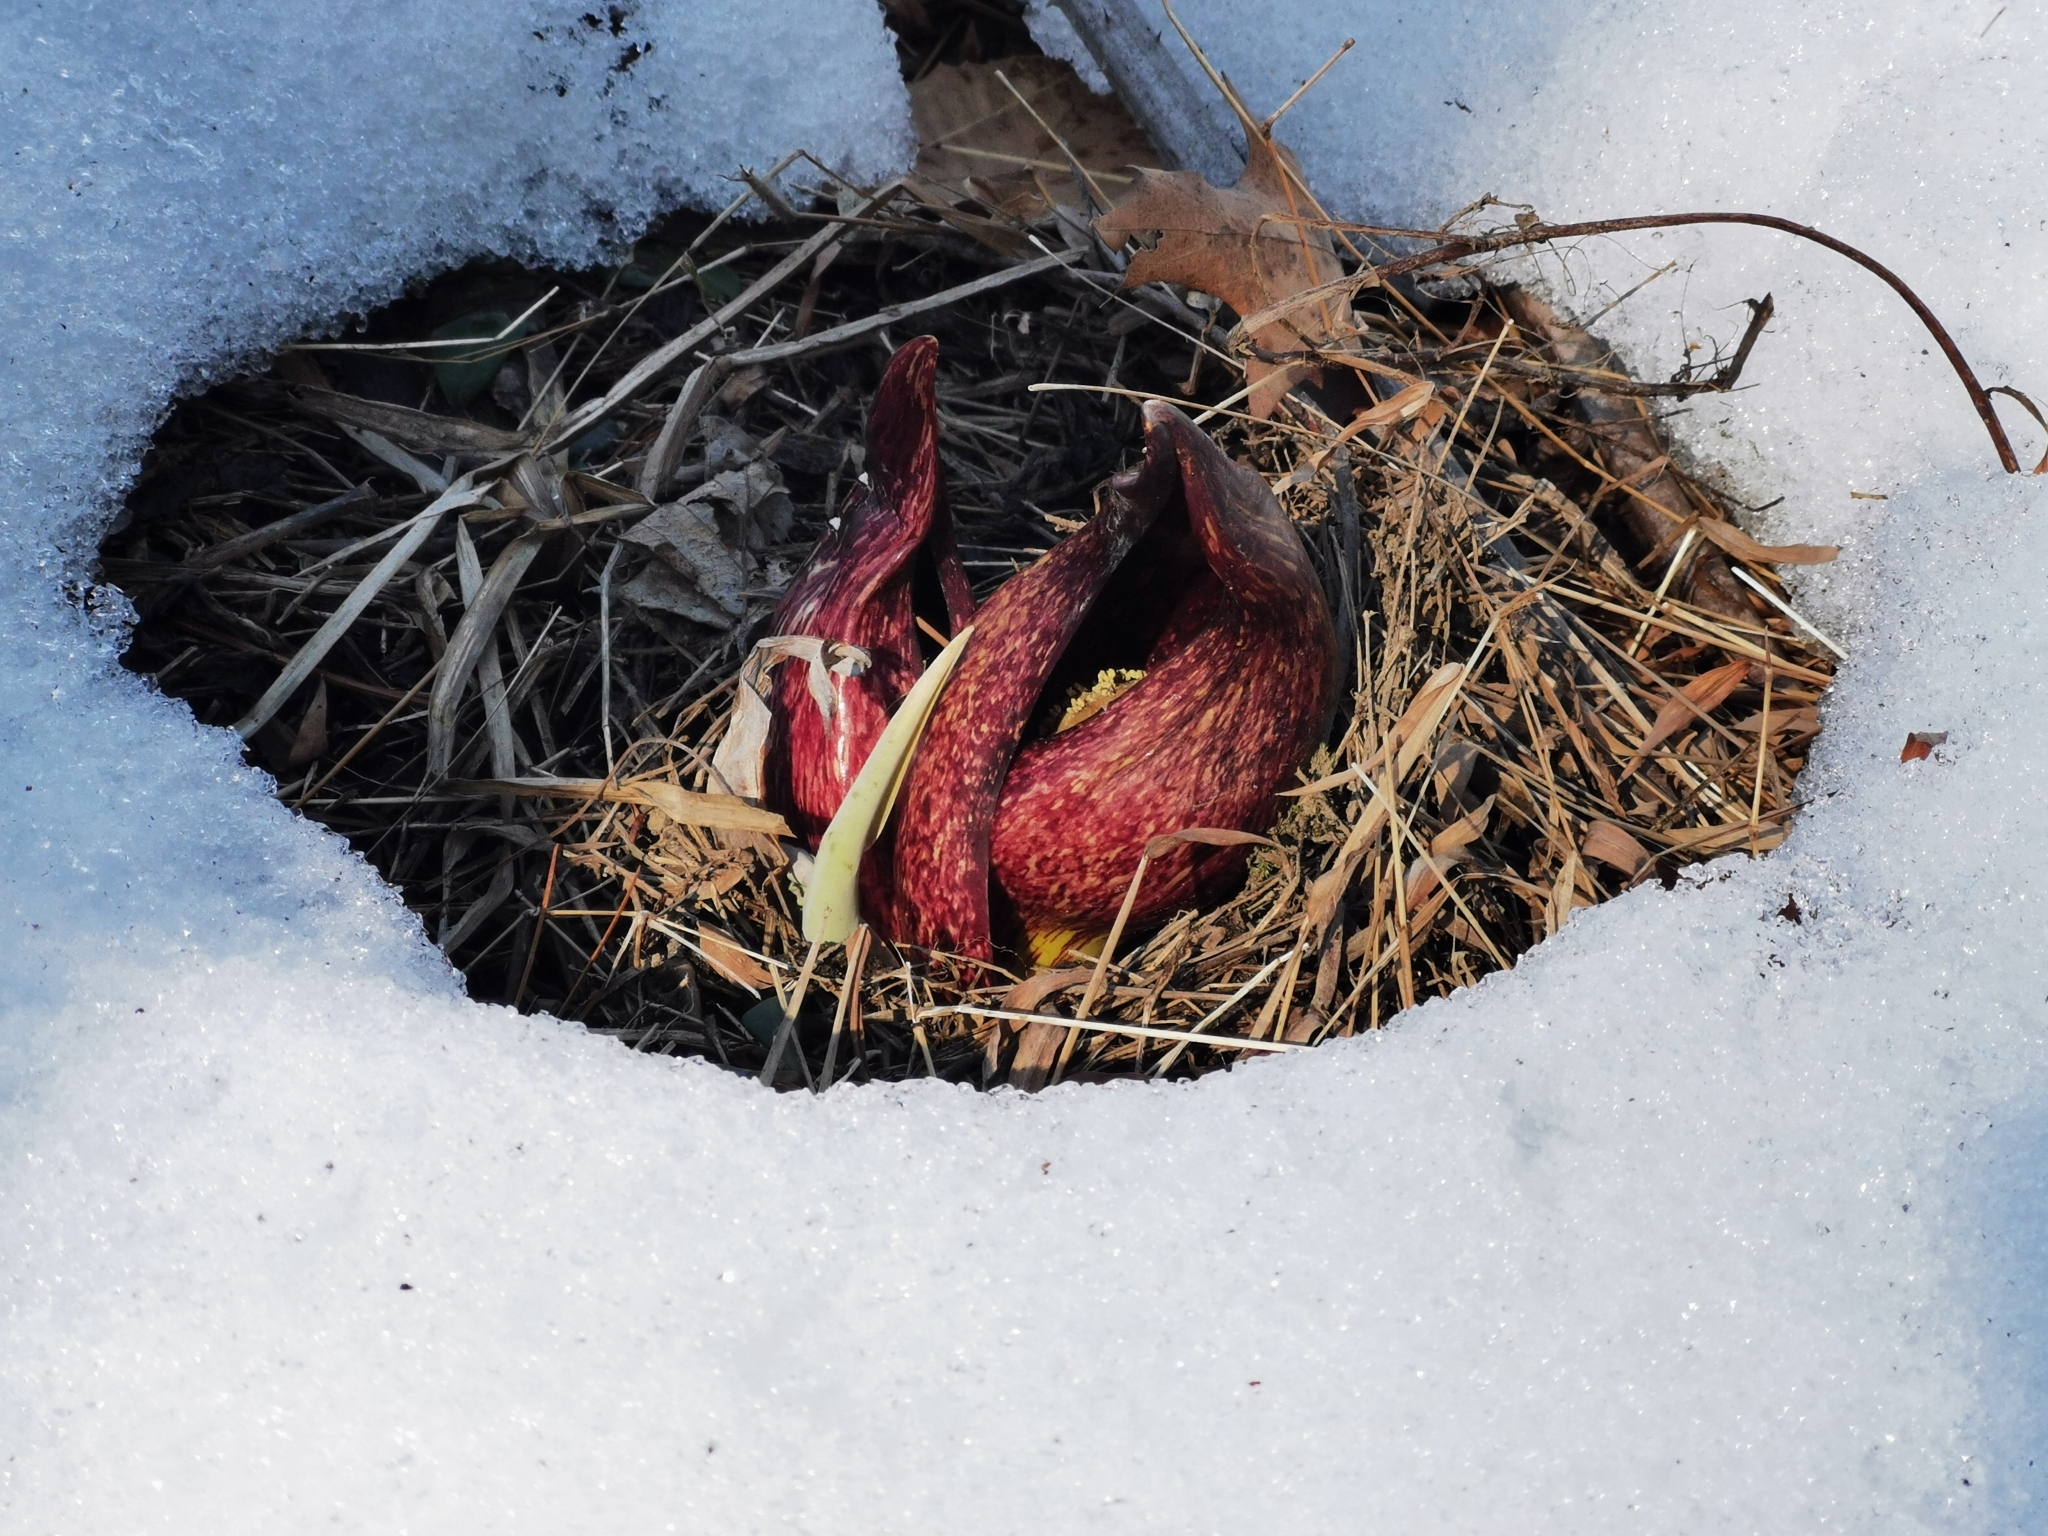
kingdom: Plantae
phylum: Tracheophyta
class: Liliopsida
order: Alismatales
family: Araceae
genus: Symplocarpus
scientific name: Symplocarpus foetidus
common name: Eastern skunk cabbage
